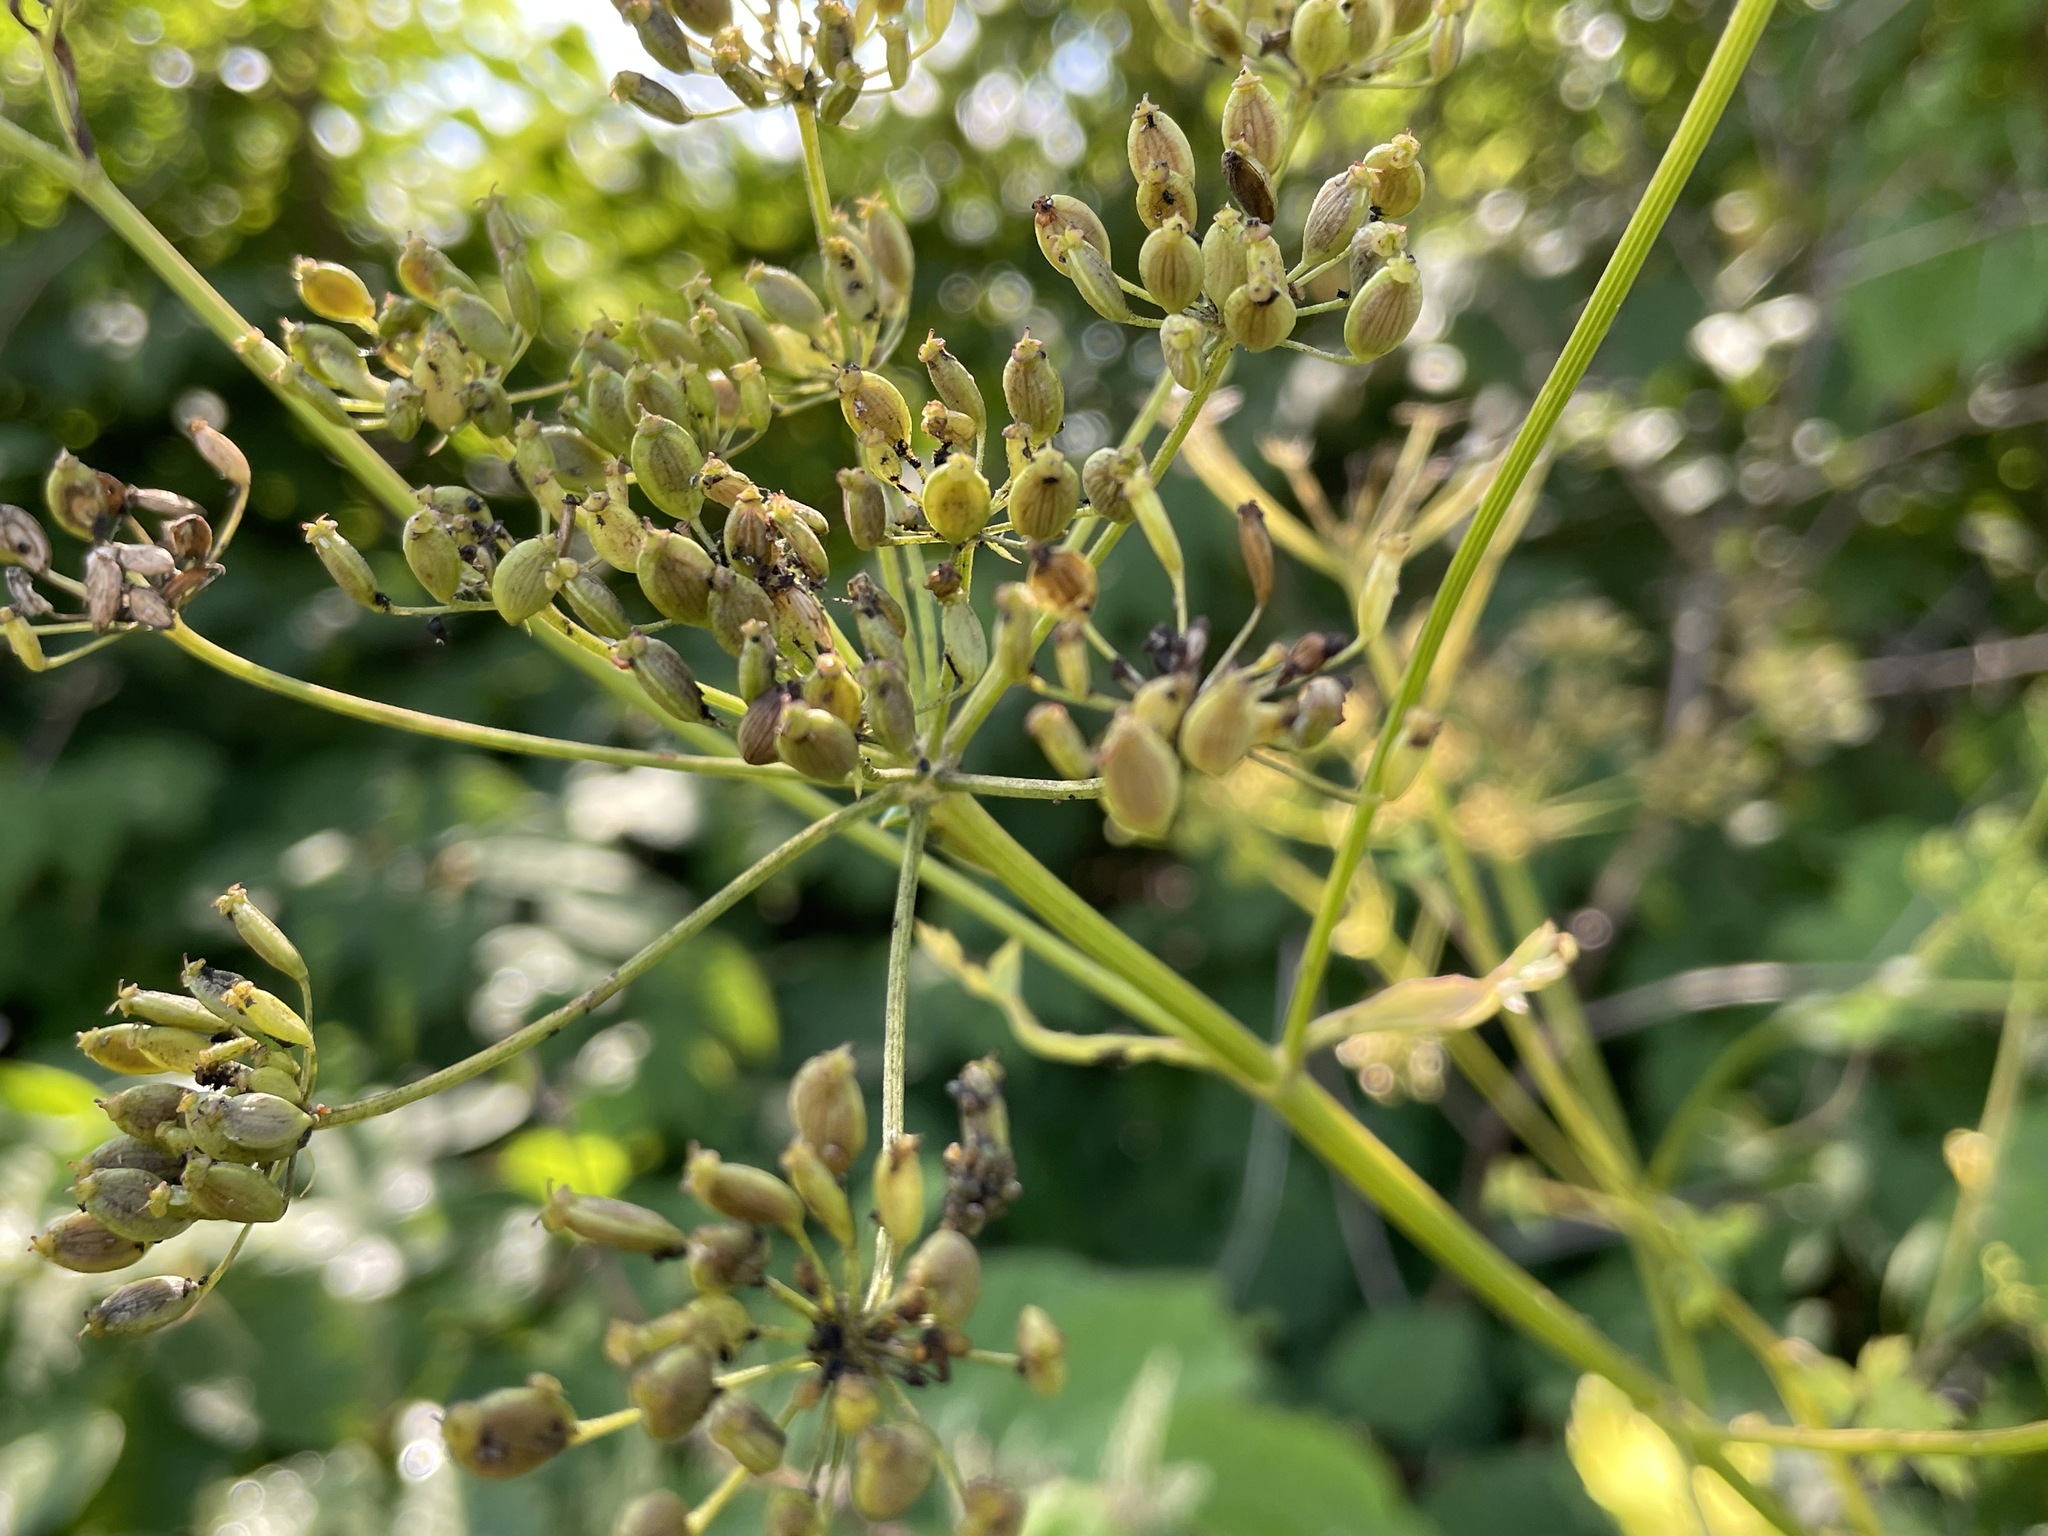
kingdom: Plantae
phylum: Tracheophyta
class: Magnoliopsida
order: Apiales
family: Apiaceae
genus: Pastinaca
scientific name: Pastinaca sativa
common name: Wild parsnip
